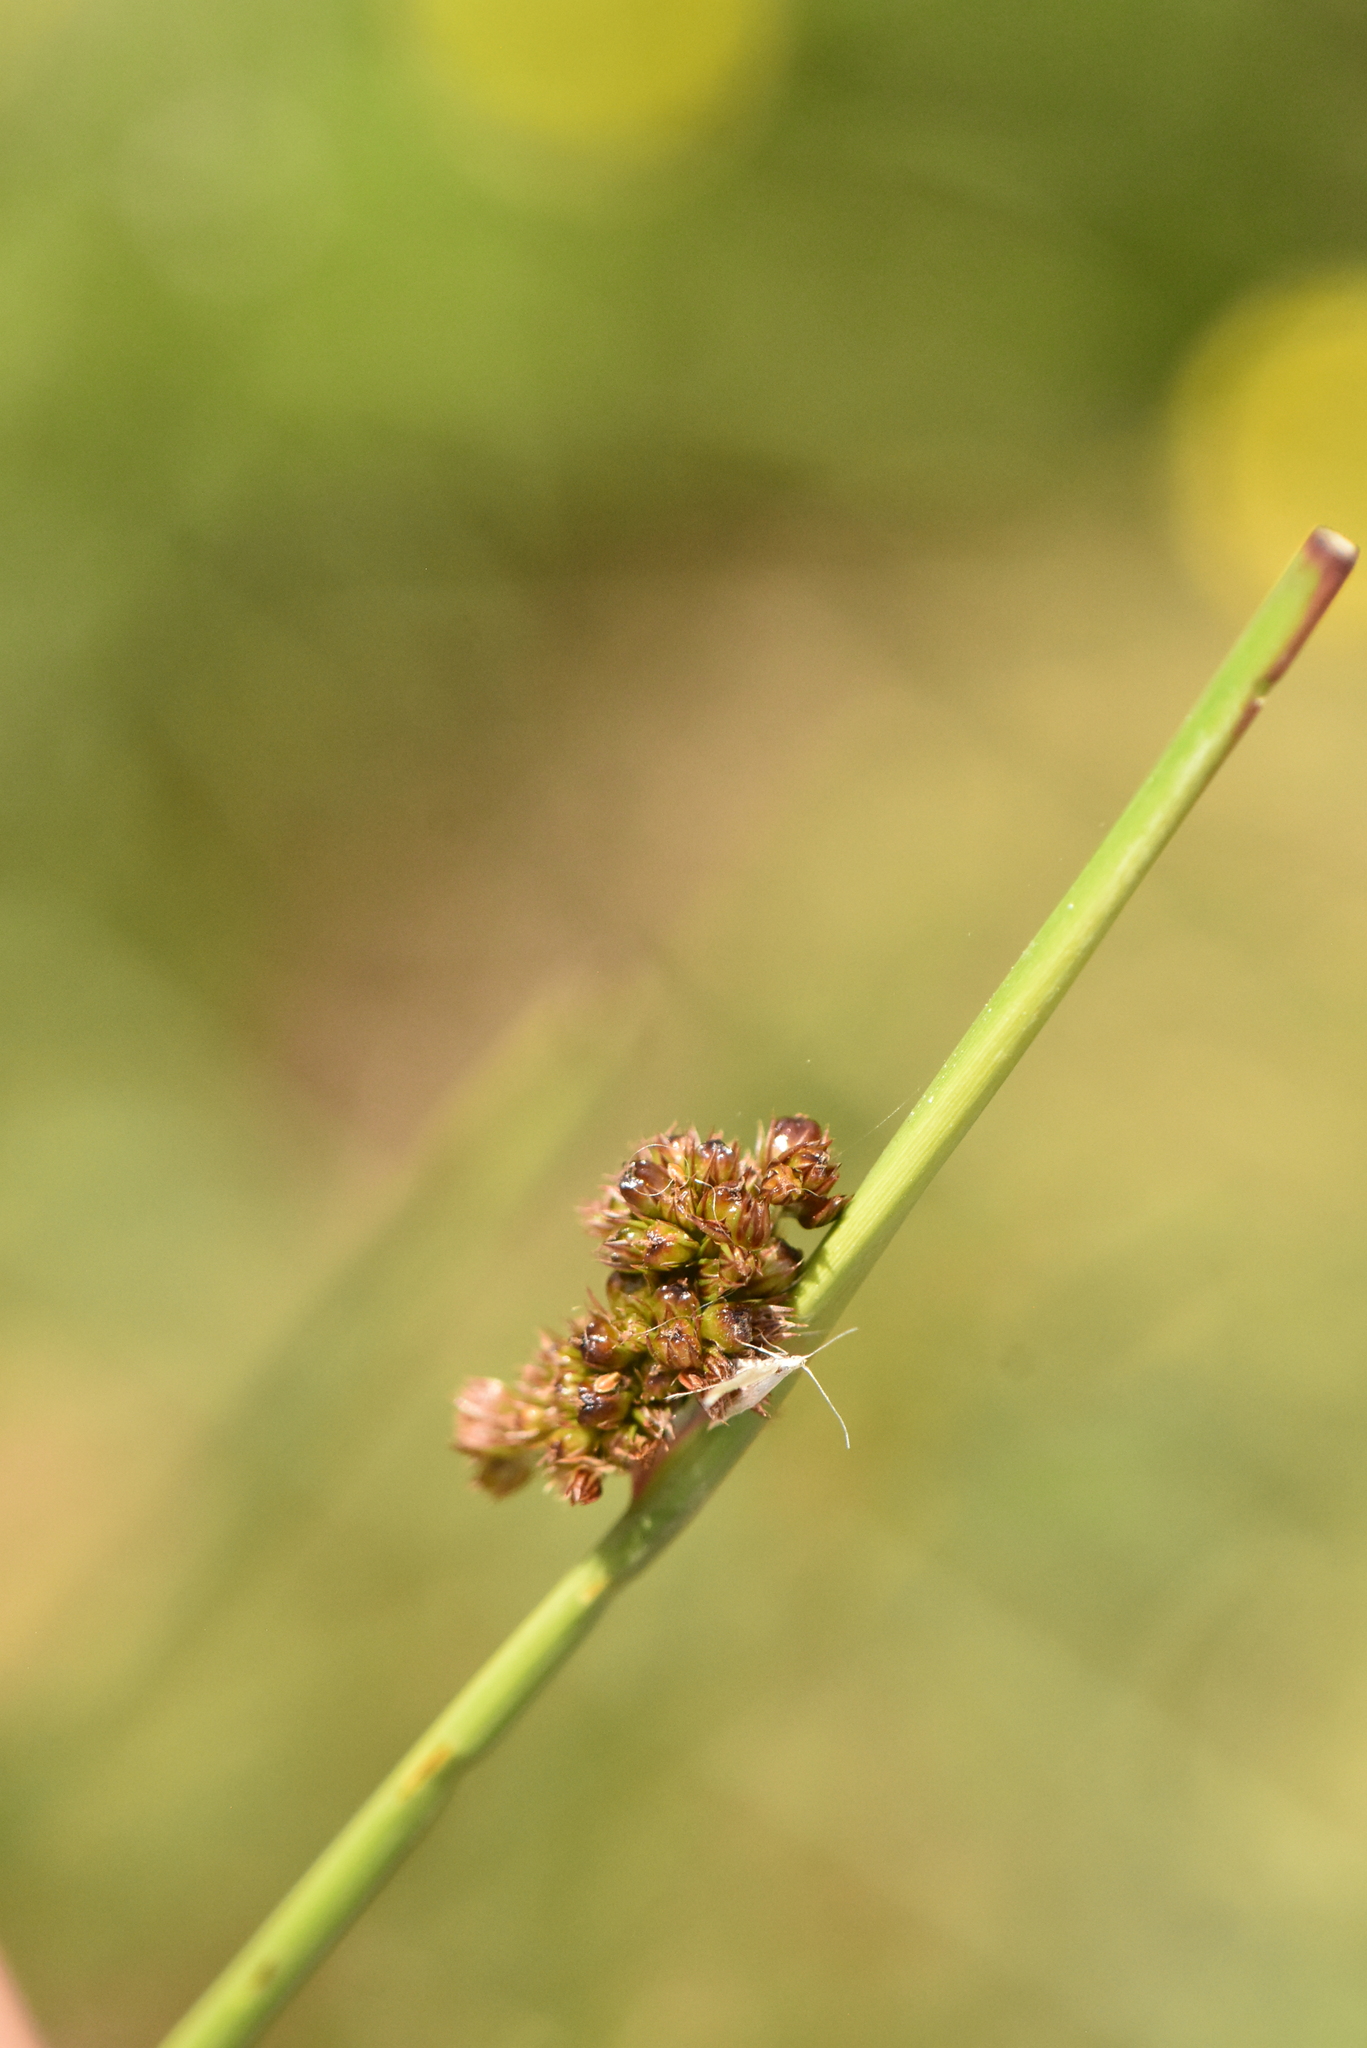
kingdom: Plantae
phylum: Tracheophyta
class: Liliopsida
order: Poales
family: Juncaceae
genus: Juncus
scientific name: Juncus conglomeratus
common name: Compact rush
